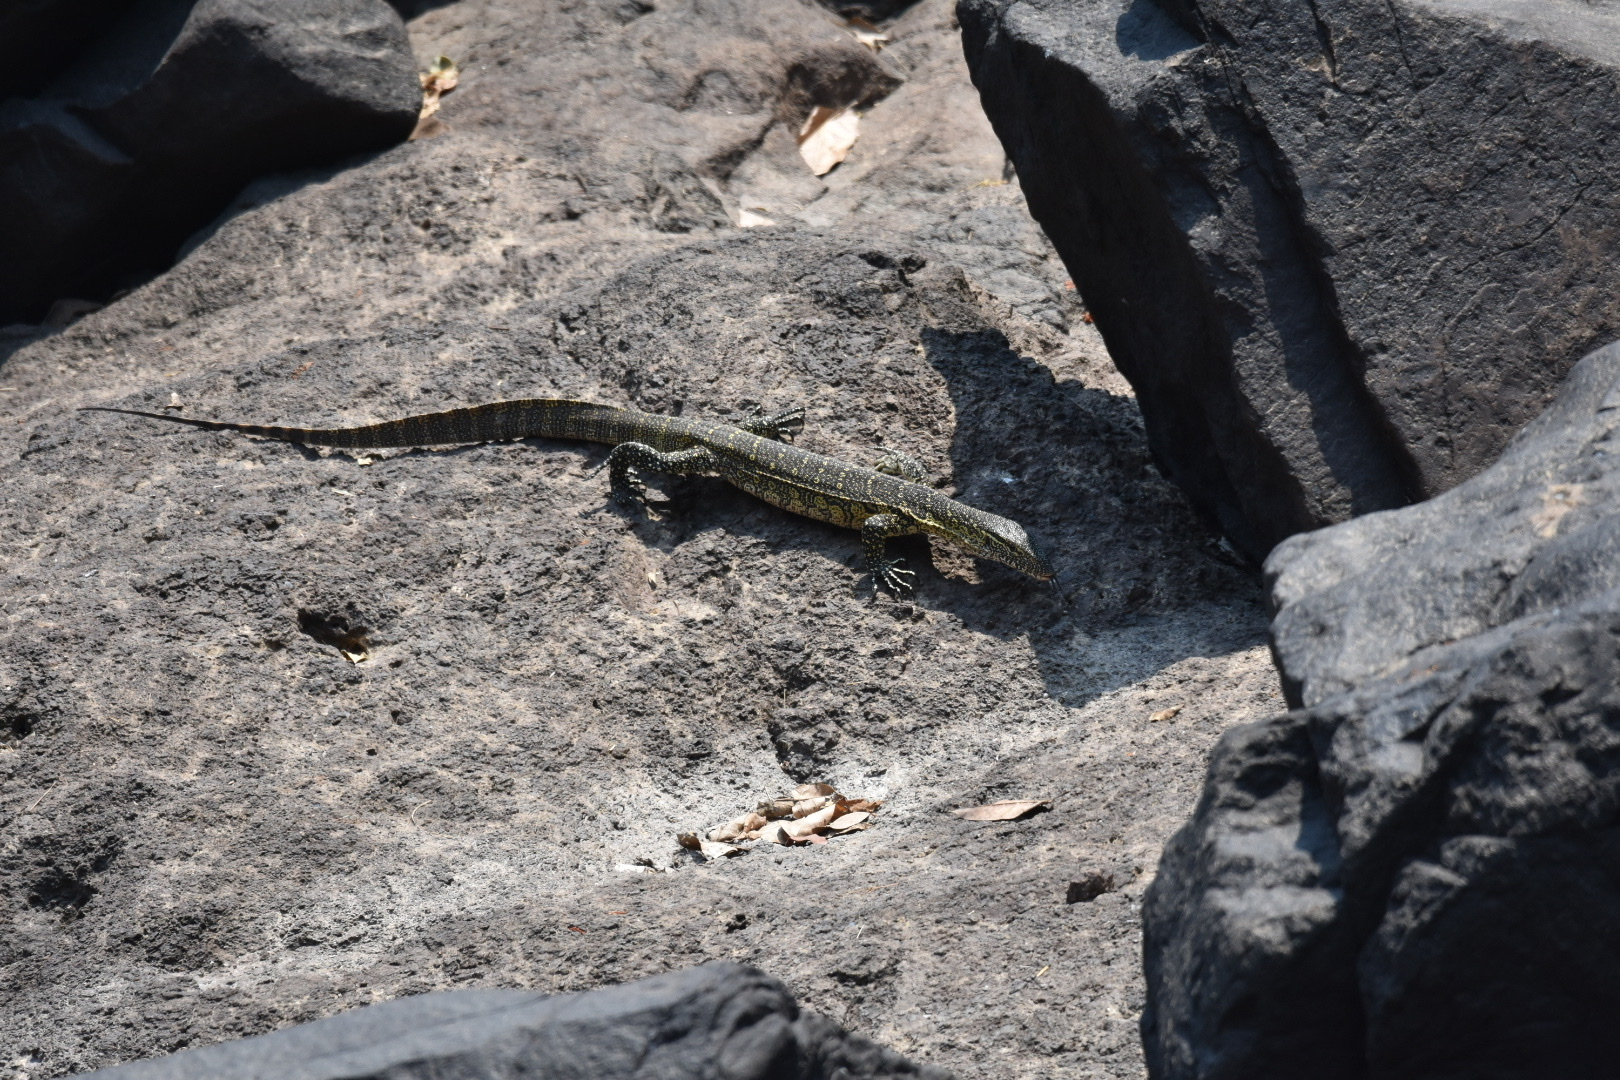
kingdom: Animalia
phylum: Chordata
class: Squamata
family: Varanidae
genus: Varanus
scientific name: Varanus niloticus
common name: Nile monitor
